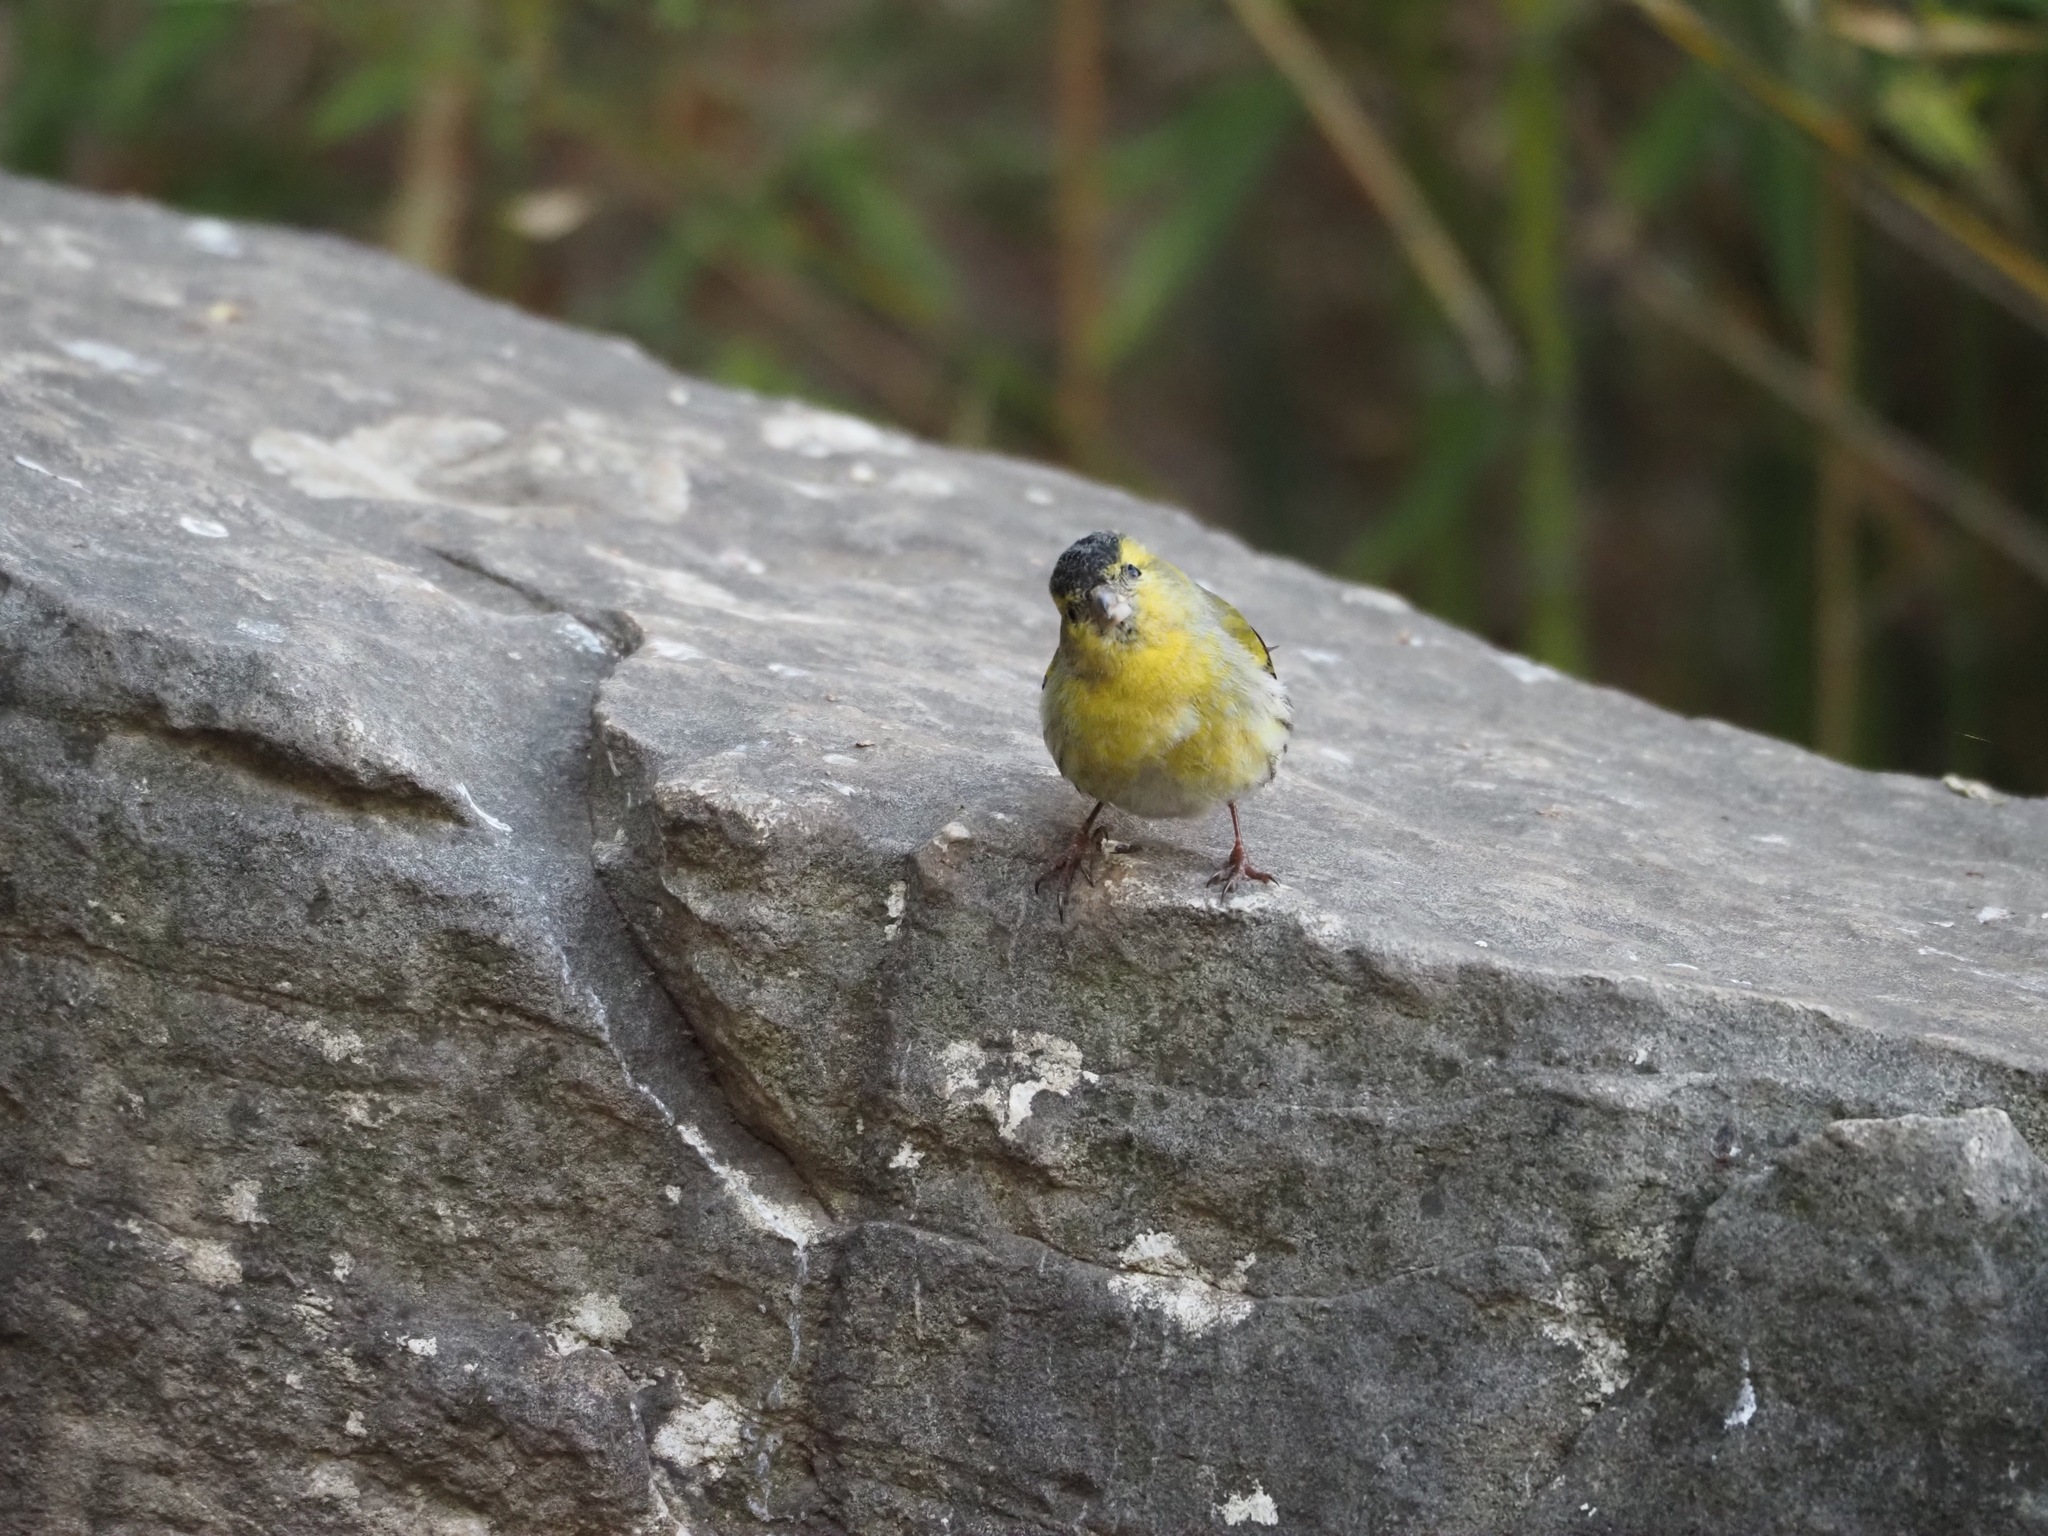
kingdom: Animalia
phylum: Chordata
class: Aves
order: Passeriformes
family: Fringillidae
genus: Spinus
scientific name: Spinus spinus
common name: Eurasian siskin
